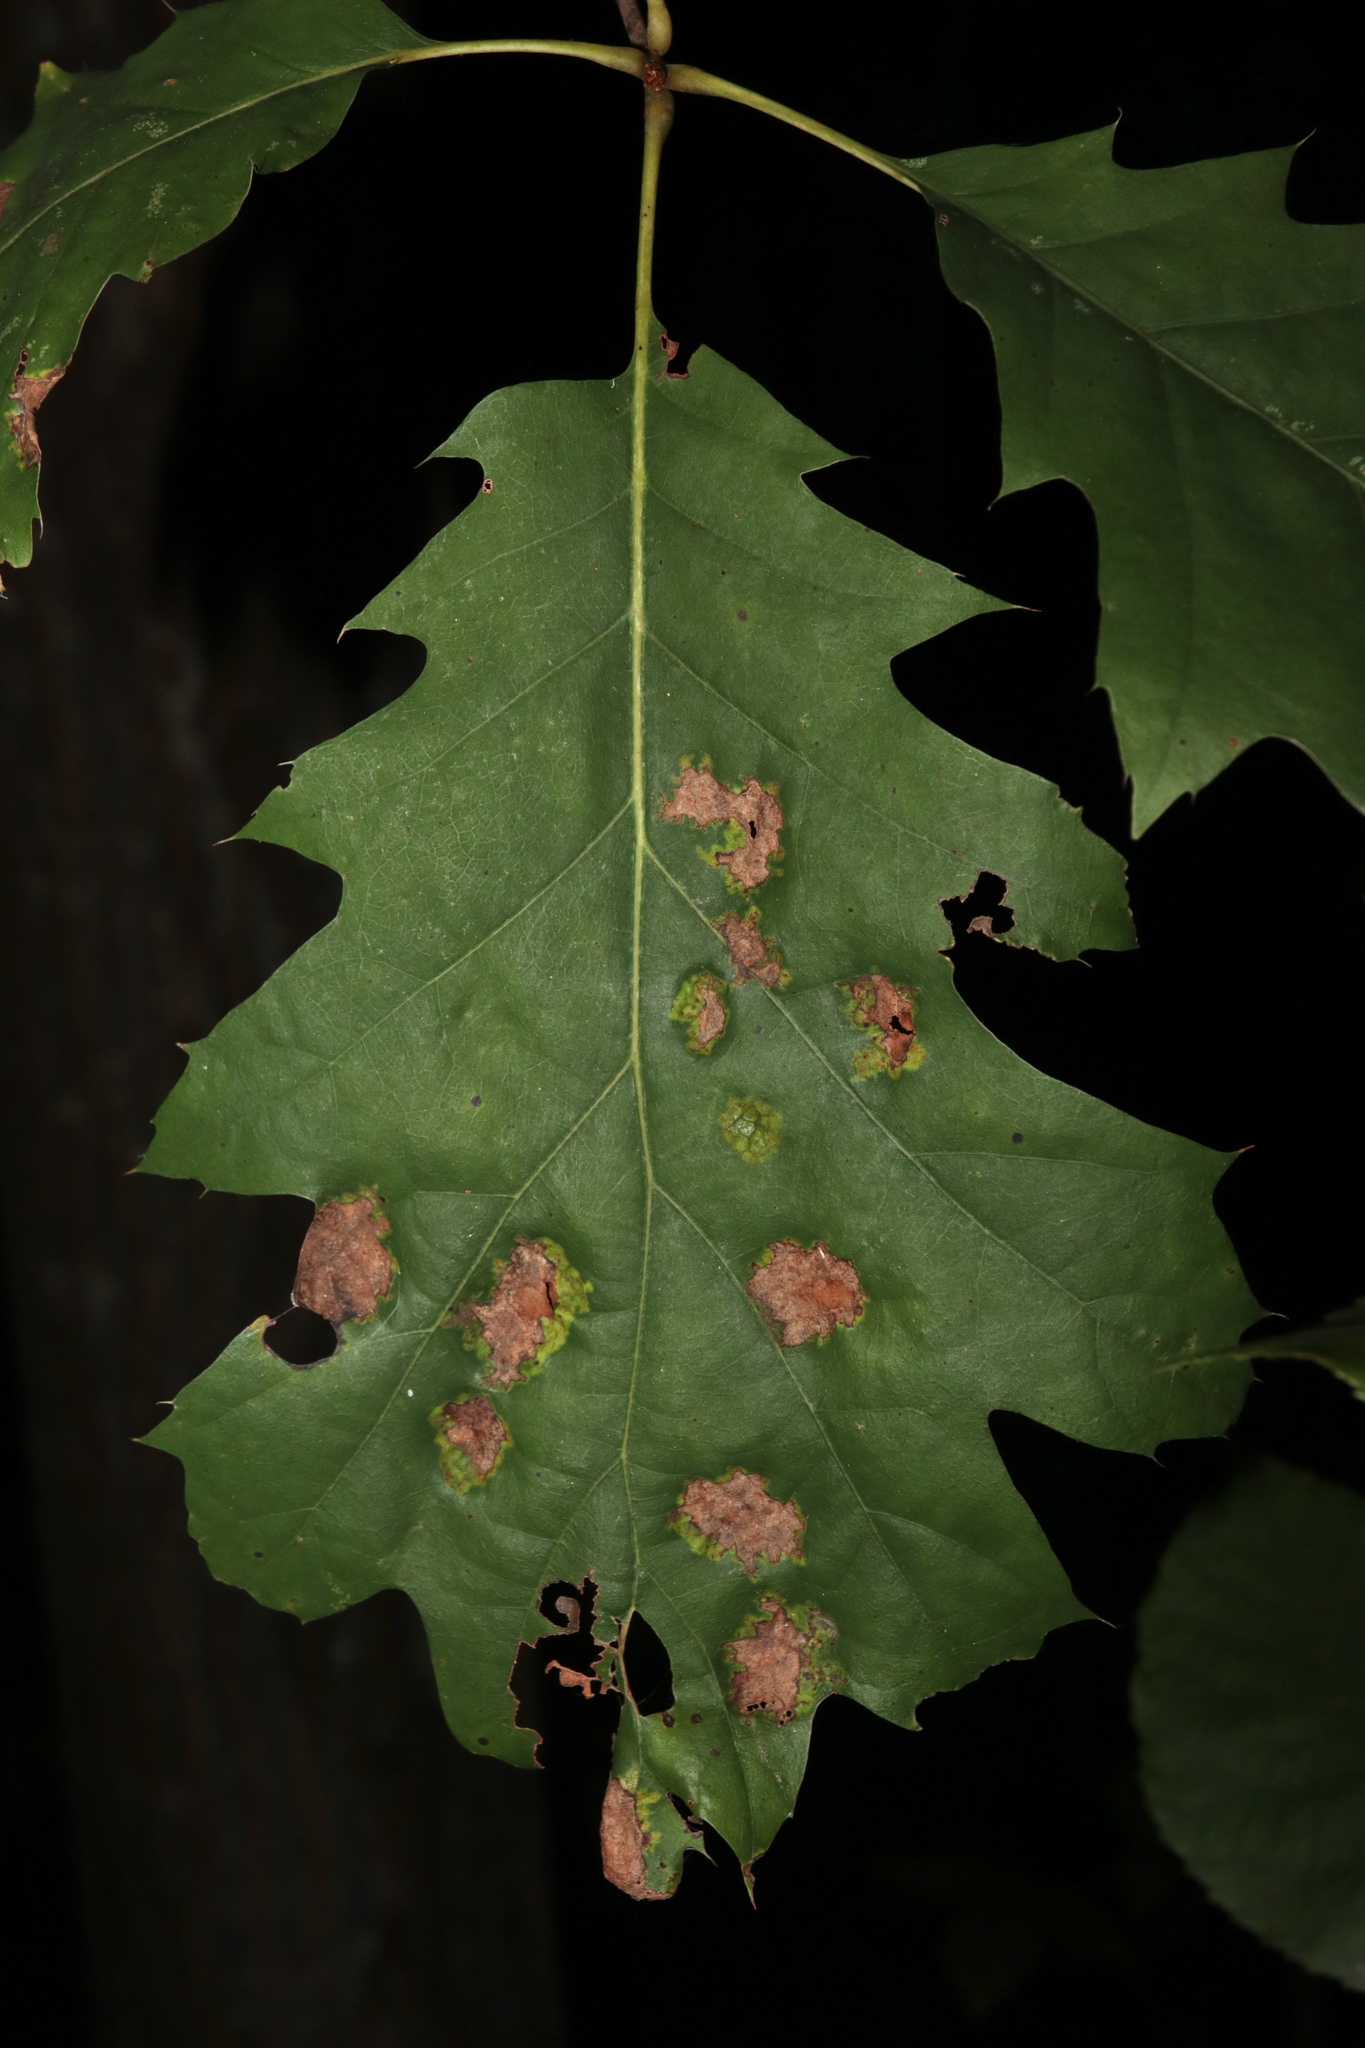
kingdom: Fungi
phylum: Ascomycota
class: Taphrinomycetes
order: Taphrinales
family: Taphrinaceae
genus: Taphrina
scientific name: Taphrina caerulescens
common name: Oak leaf blister
